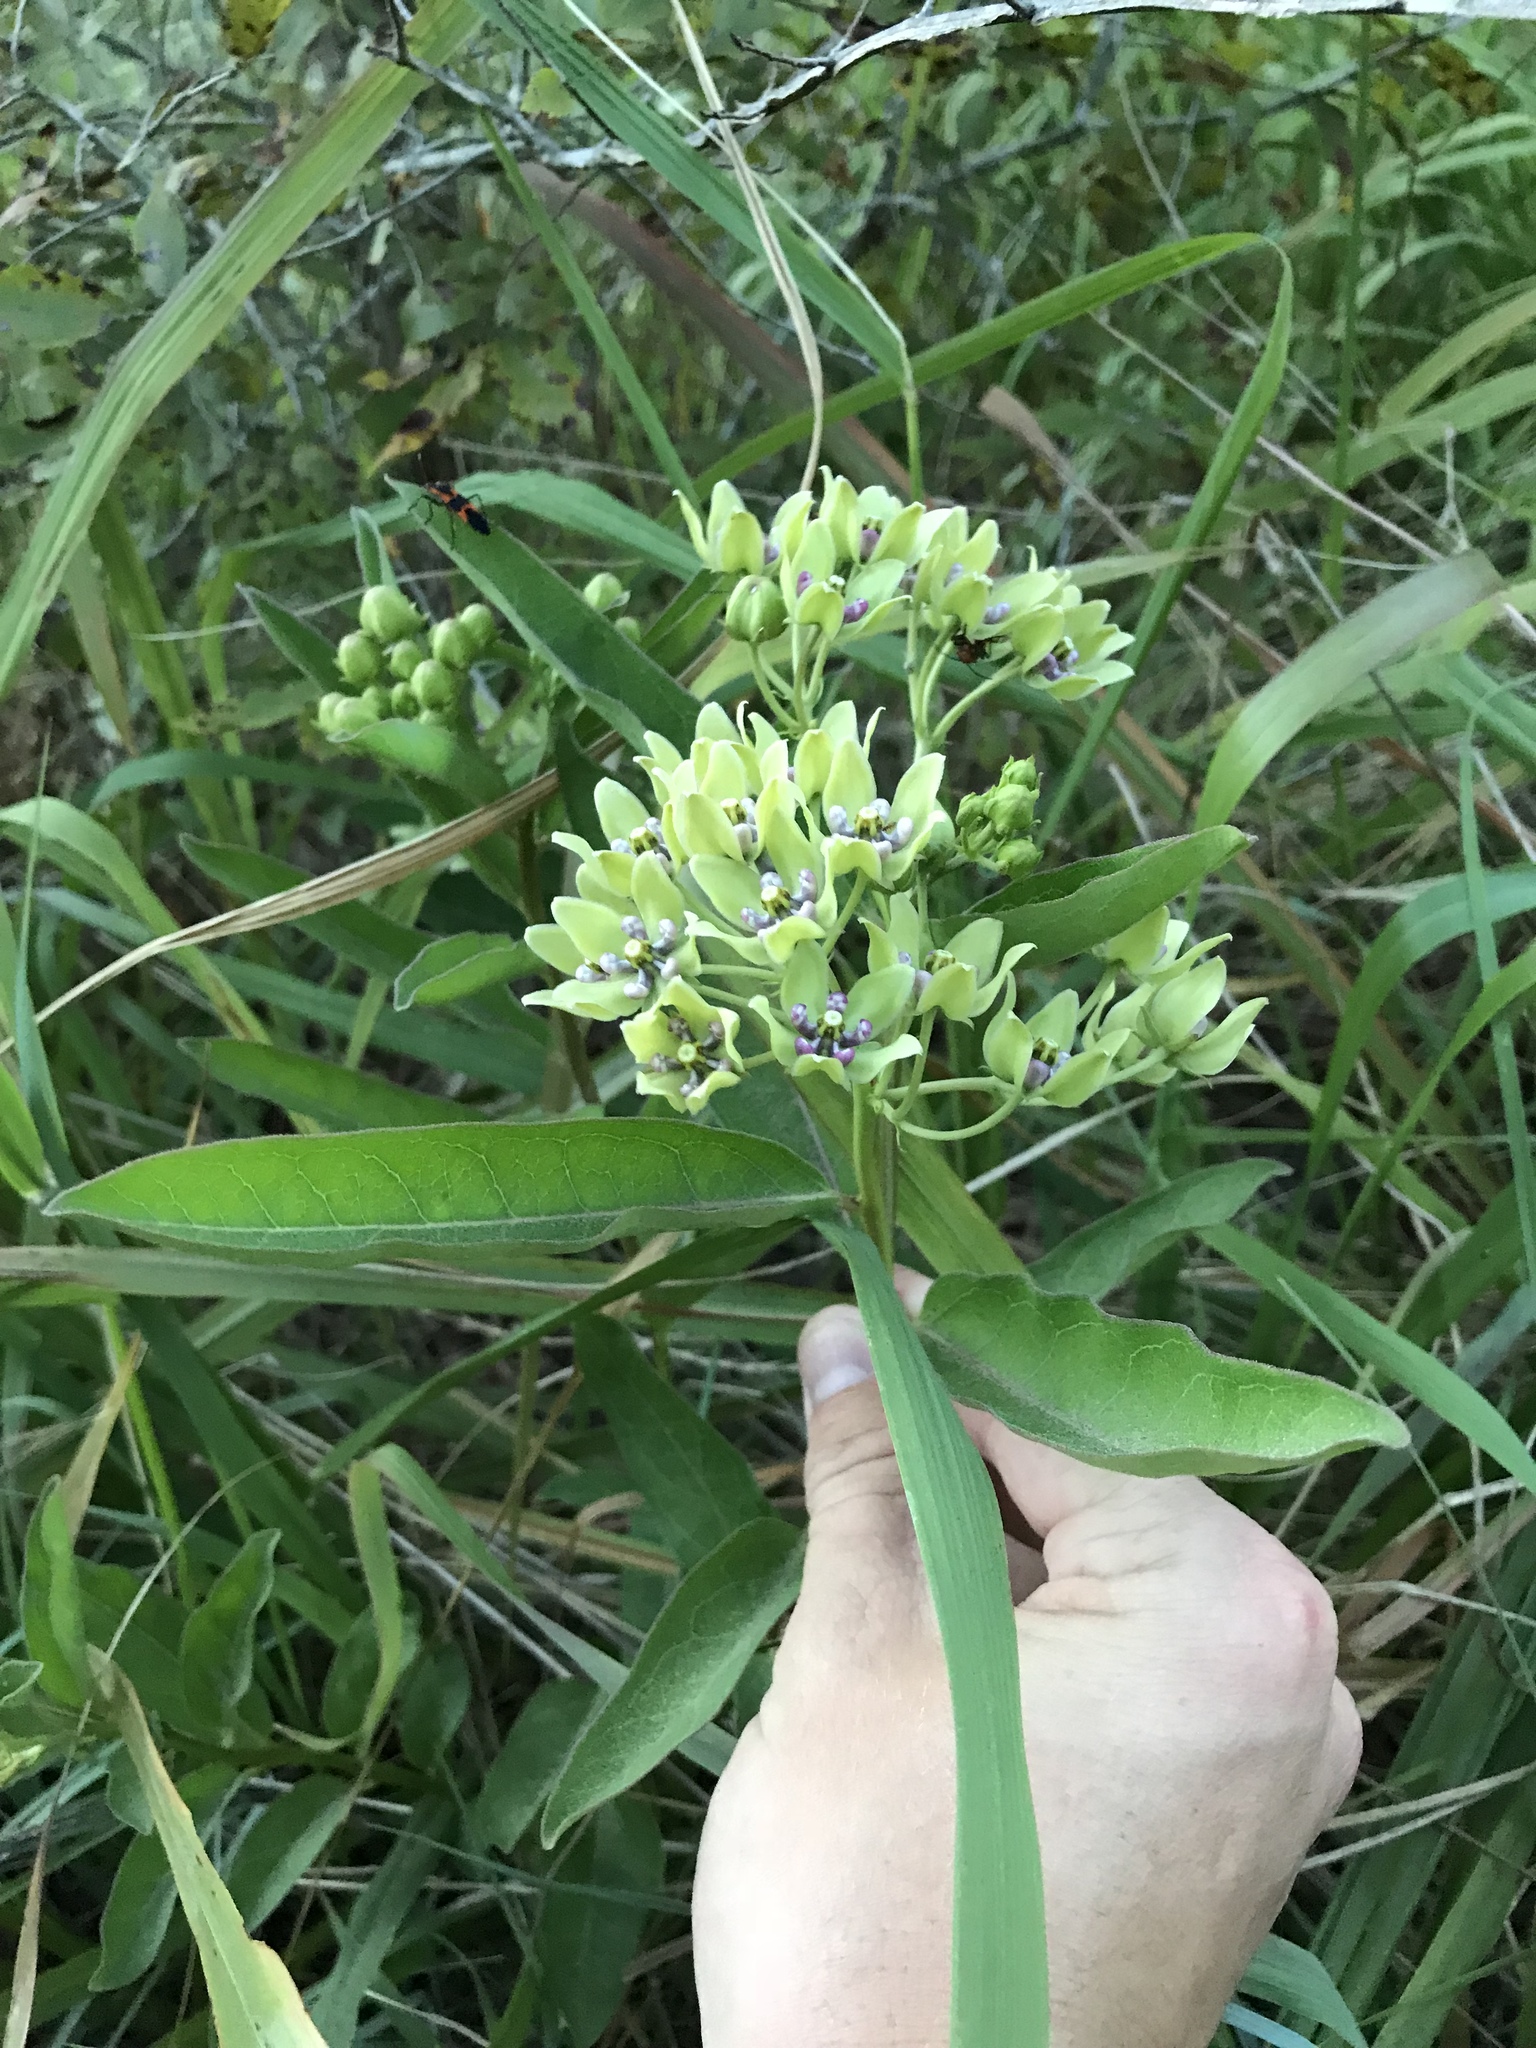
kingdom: Plantae
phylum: Tracheophyta
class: Magnoliopsida
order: Gentianales
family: Apocynaceae
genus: Asclepias
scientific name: Asclepias viridis
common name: Antelope-horns
